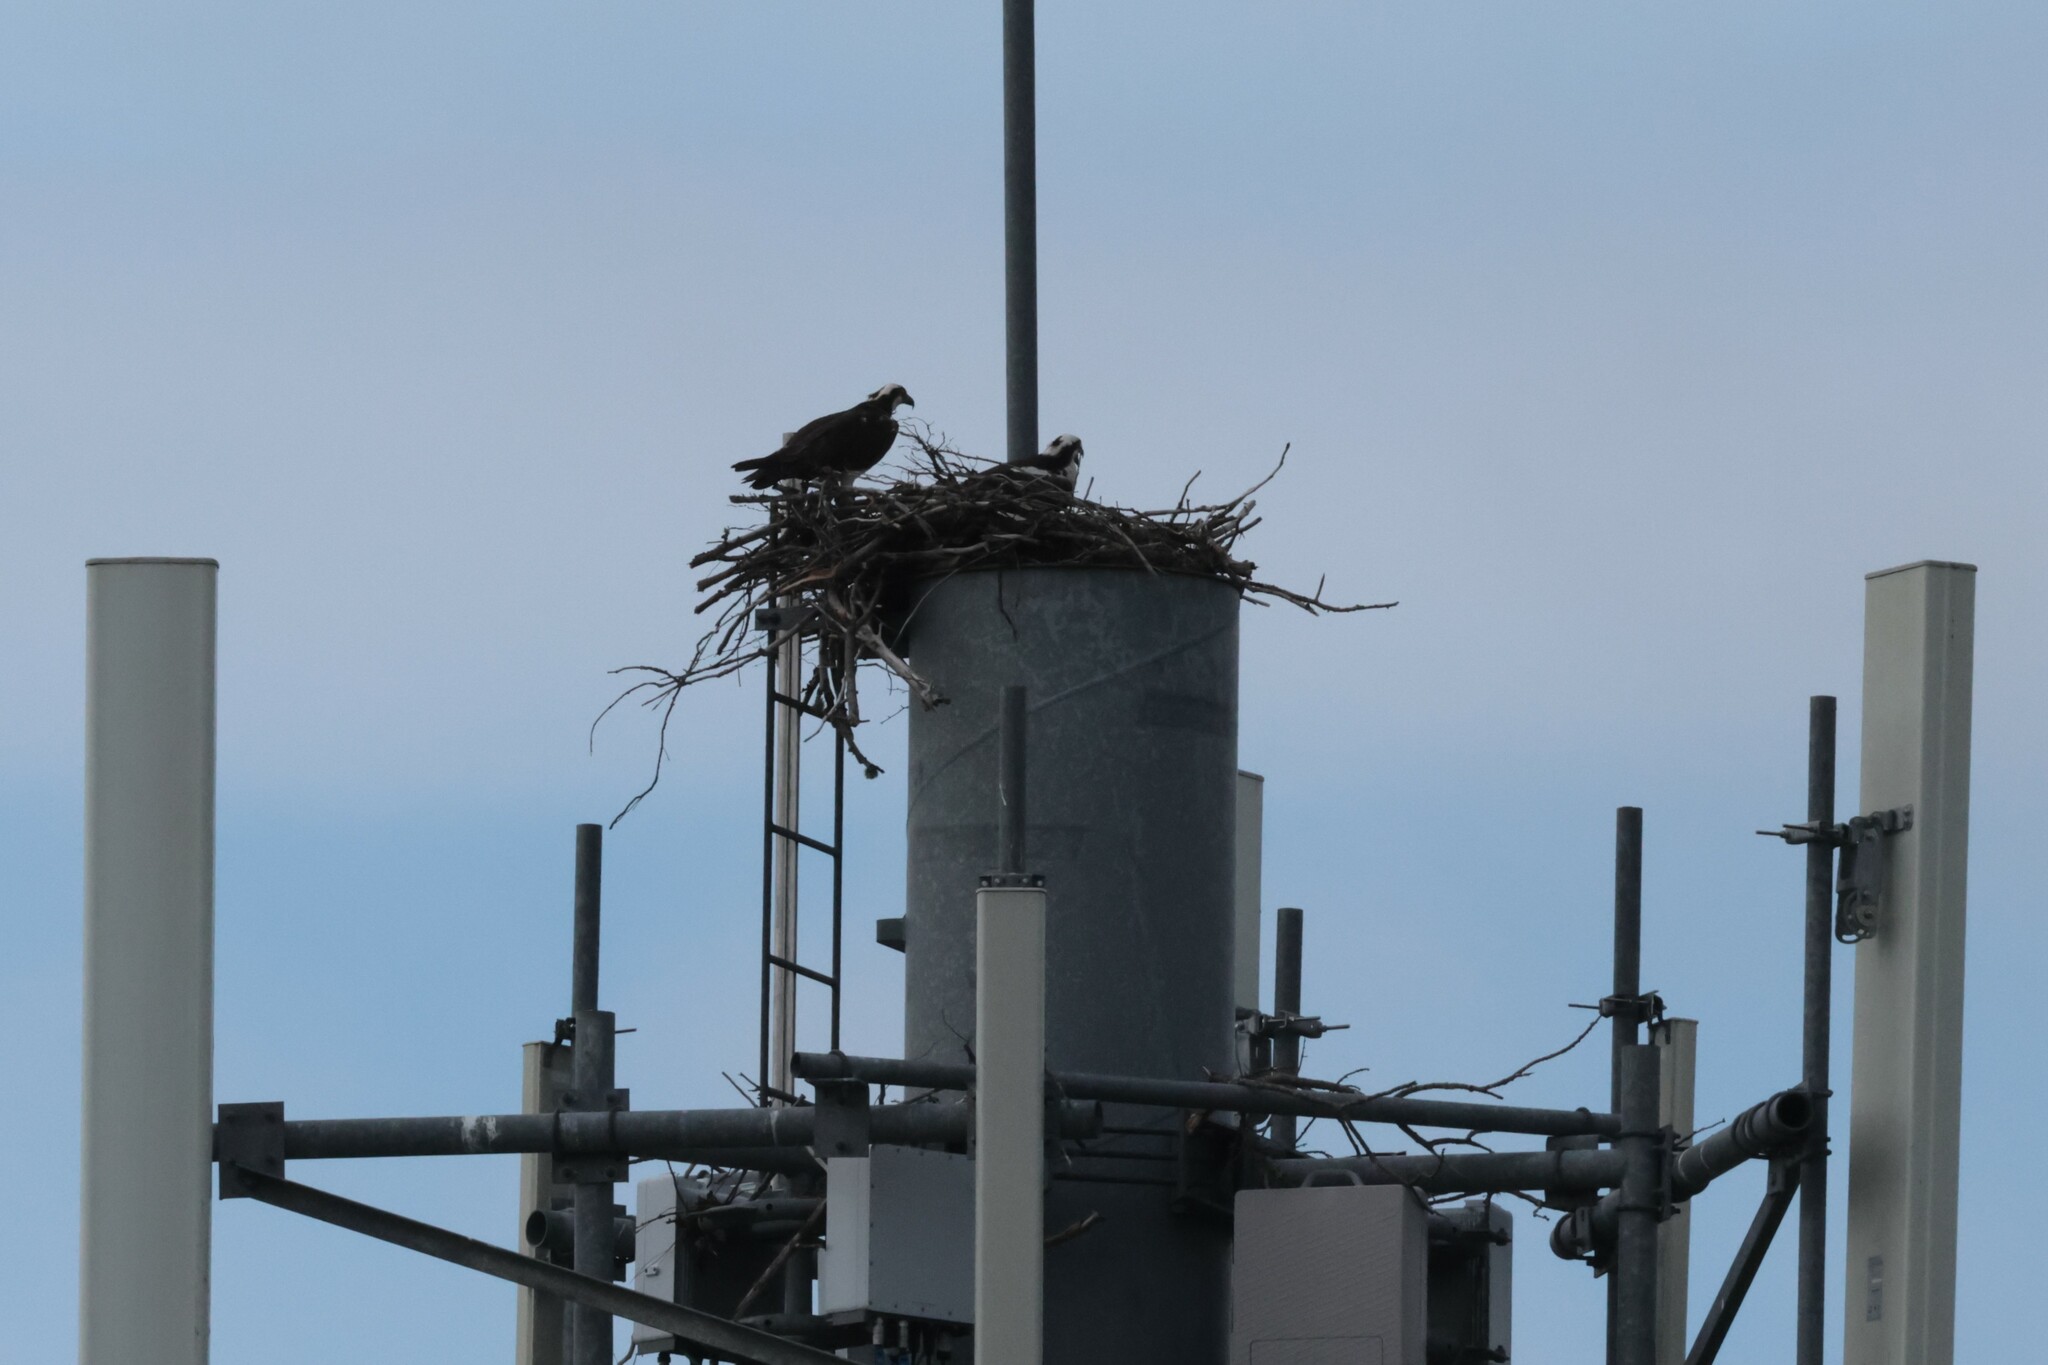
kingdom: Animalia
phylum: Chordata
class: Aves
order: Accipitriformes
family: Pandionidae
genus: Pandion
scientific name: Pandion haliaetus
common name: Osprey
